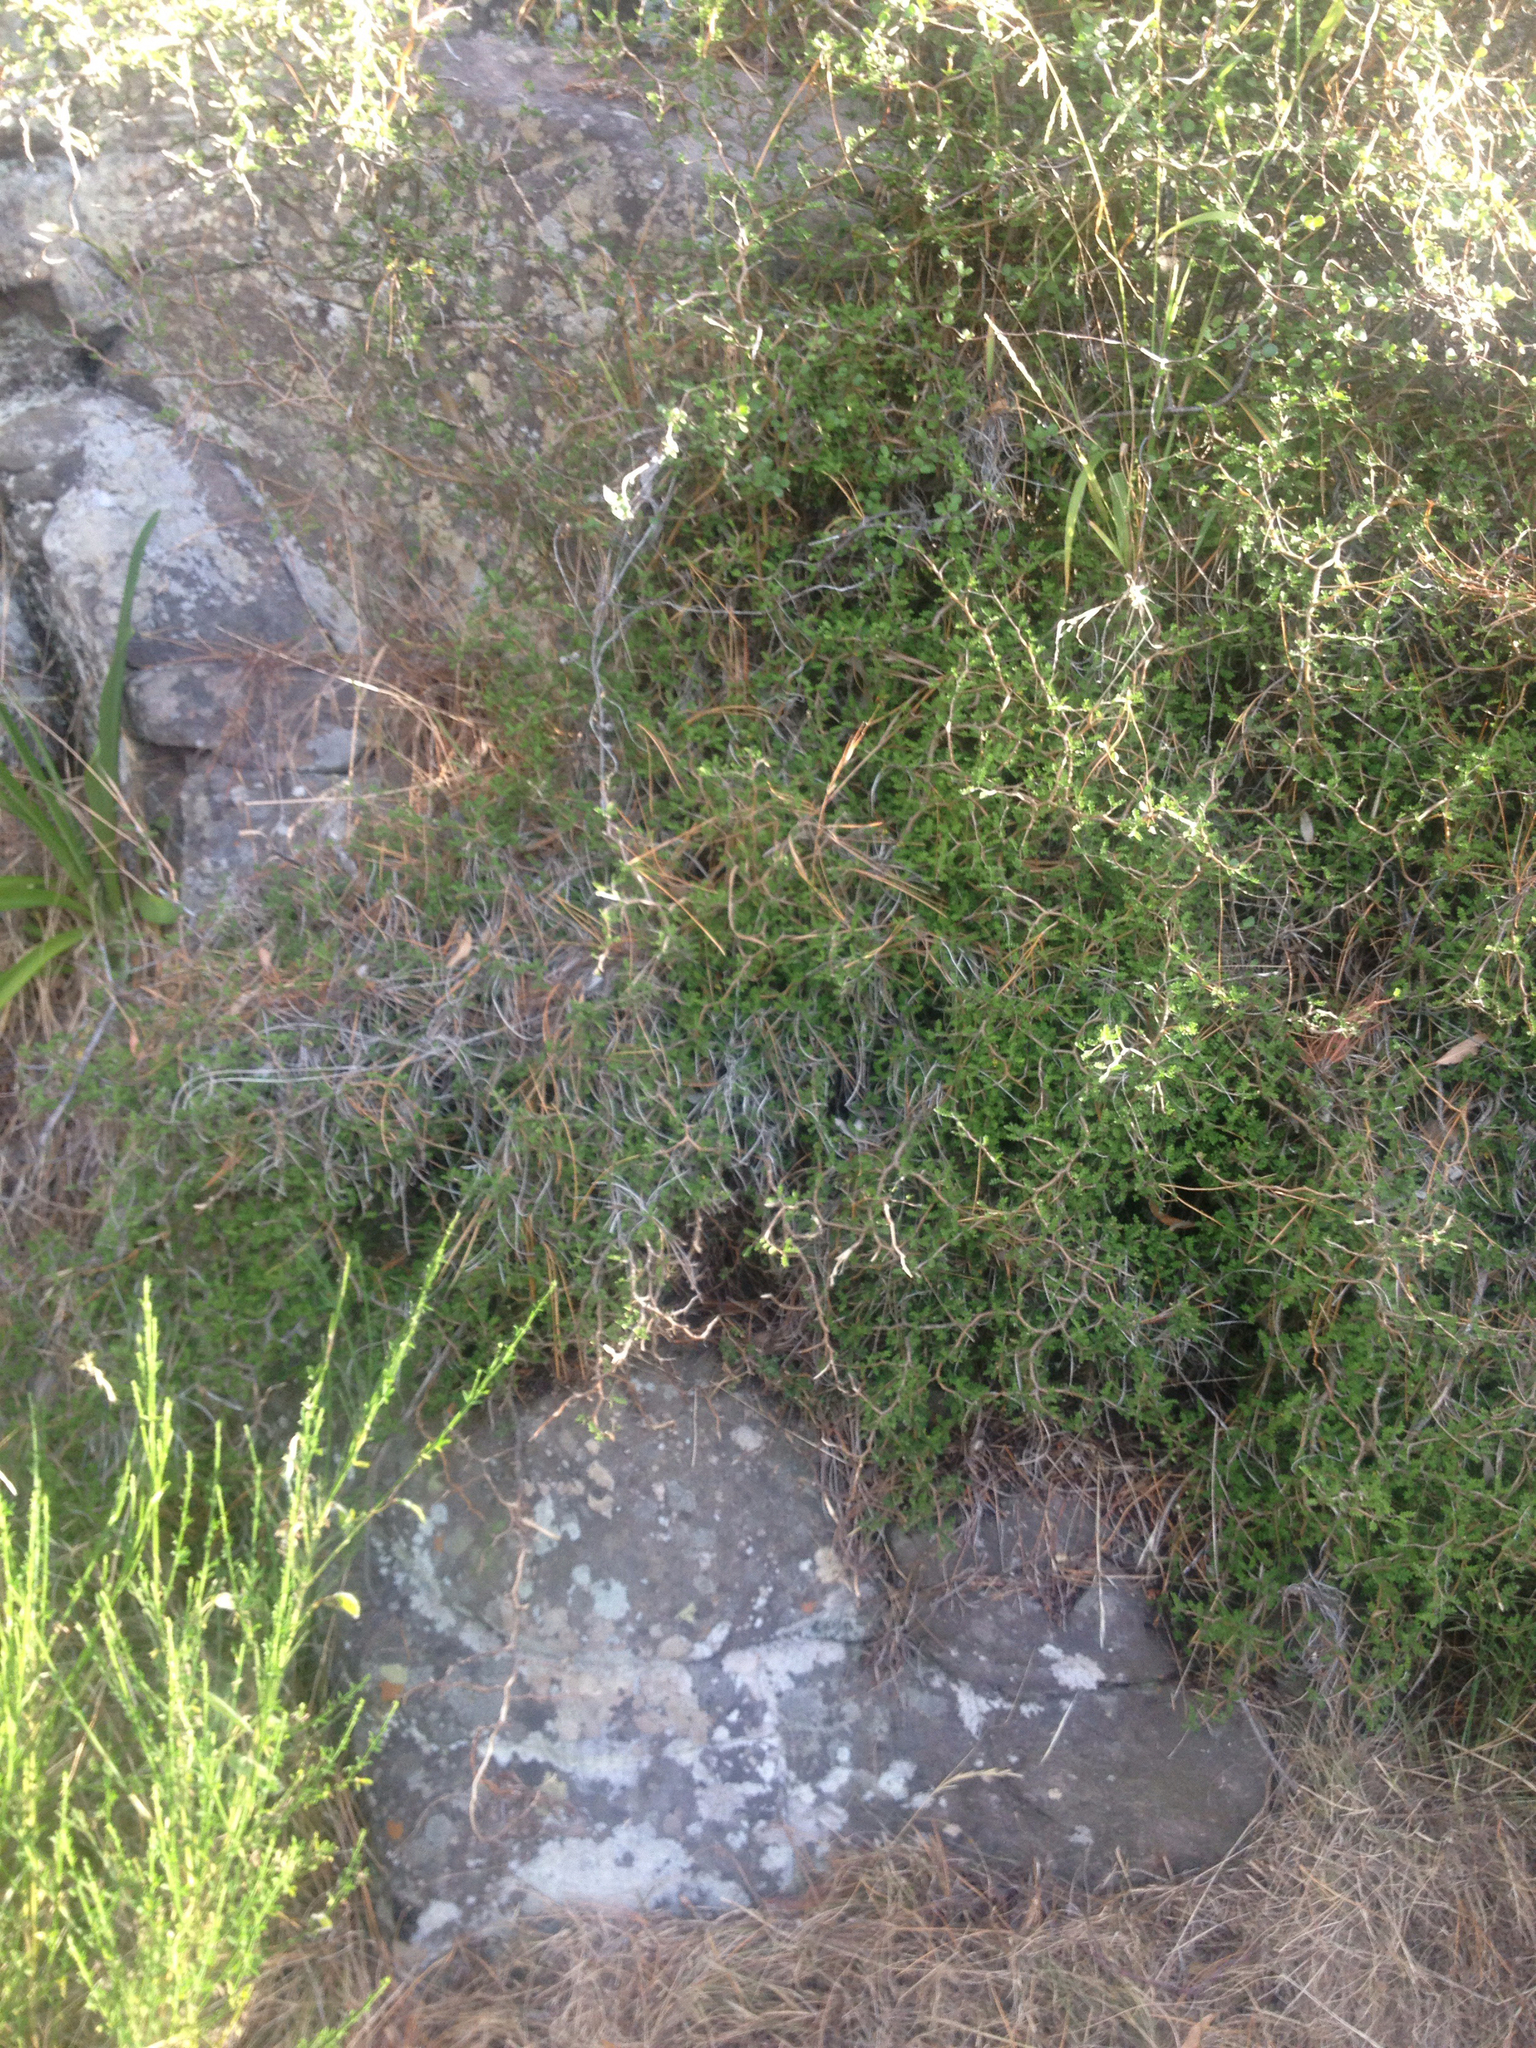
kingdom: Plantae
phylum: Tracheophyta
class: Magnoliopsida
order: Fabales
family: Fabaceae
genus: Sophora
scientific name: Sophora prostrata
